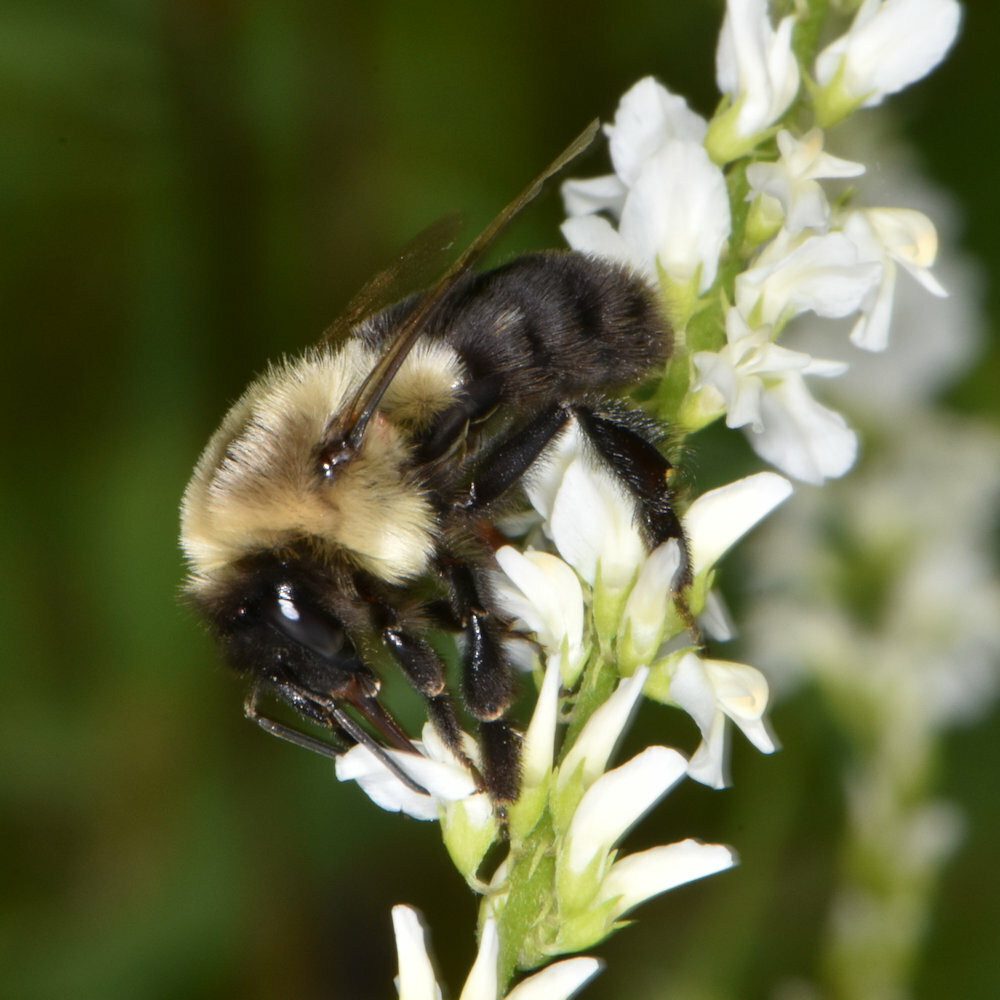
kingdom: Animalia
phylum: Arthropoda
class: Insecta
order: Hymenoptera
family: Apidae
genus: Bombus
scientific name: Bombus impatiens
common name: Common eastern bumble bee
